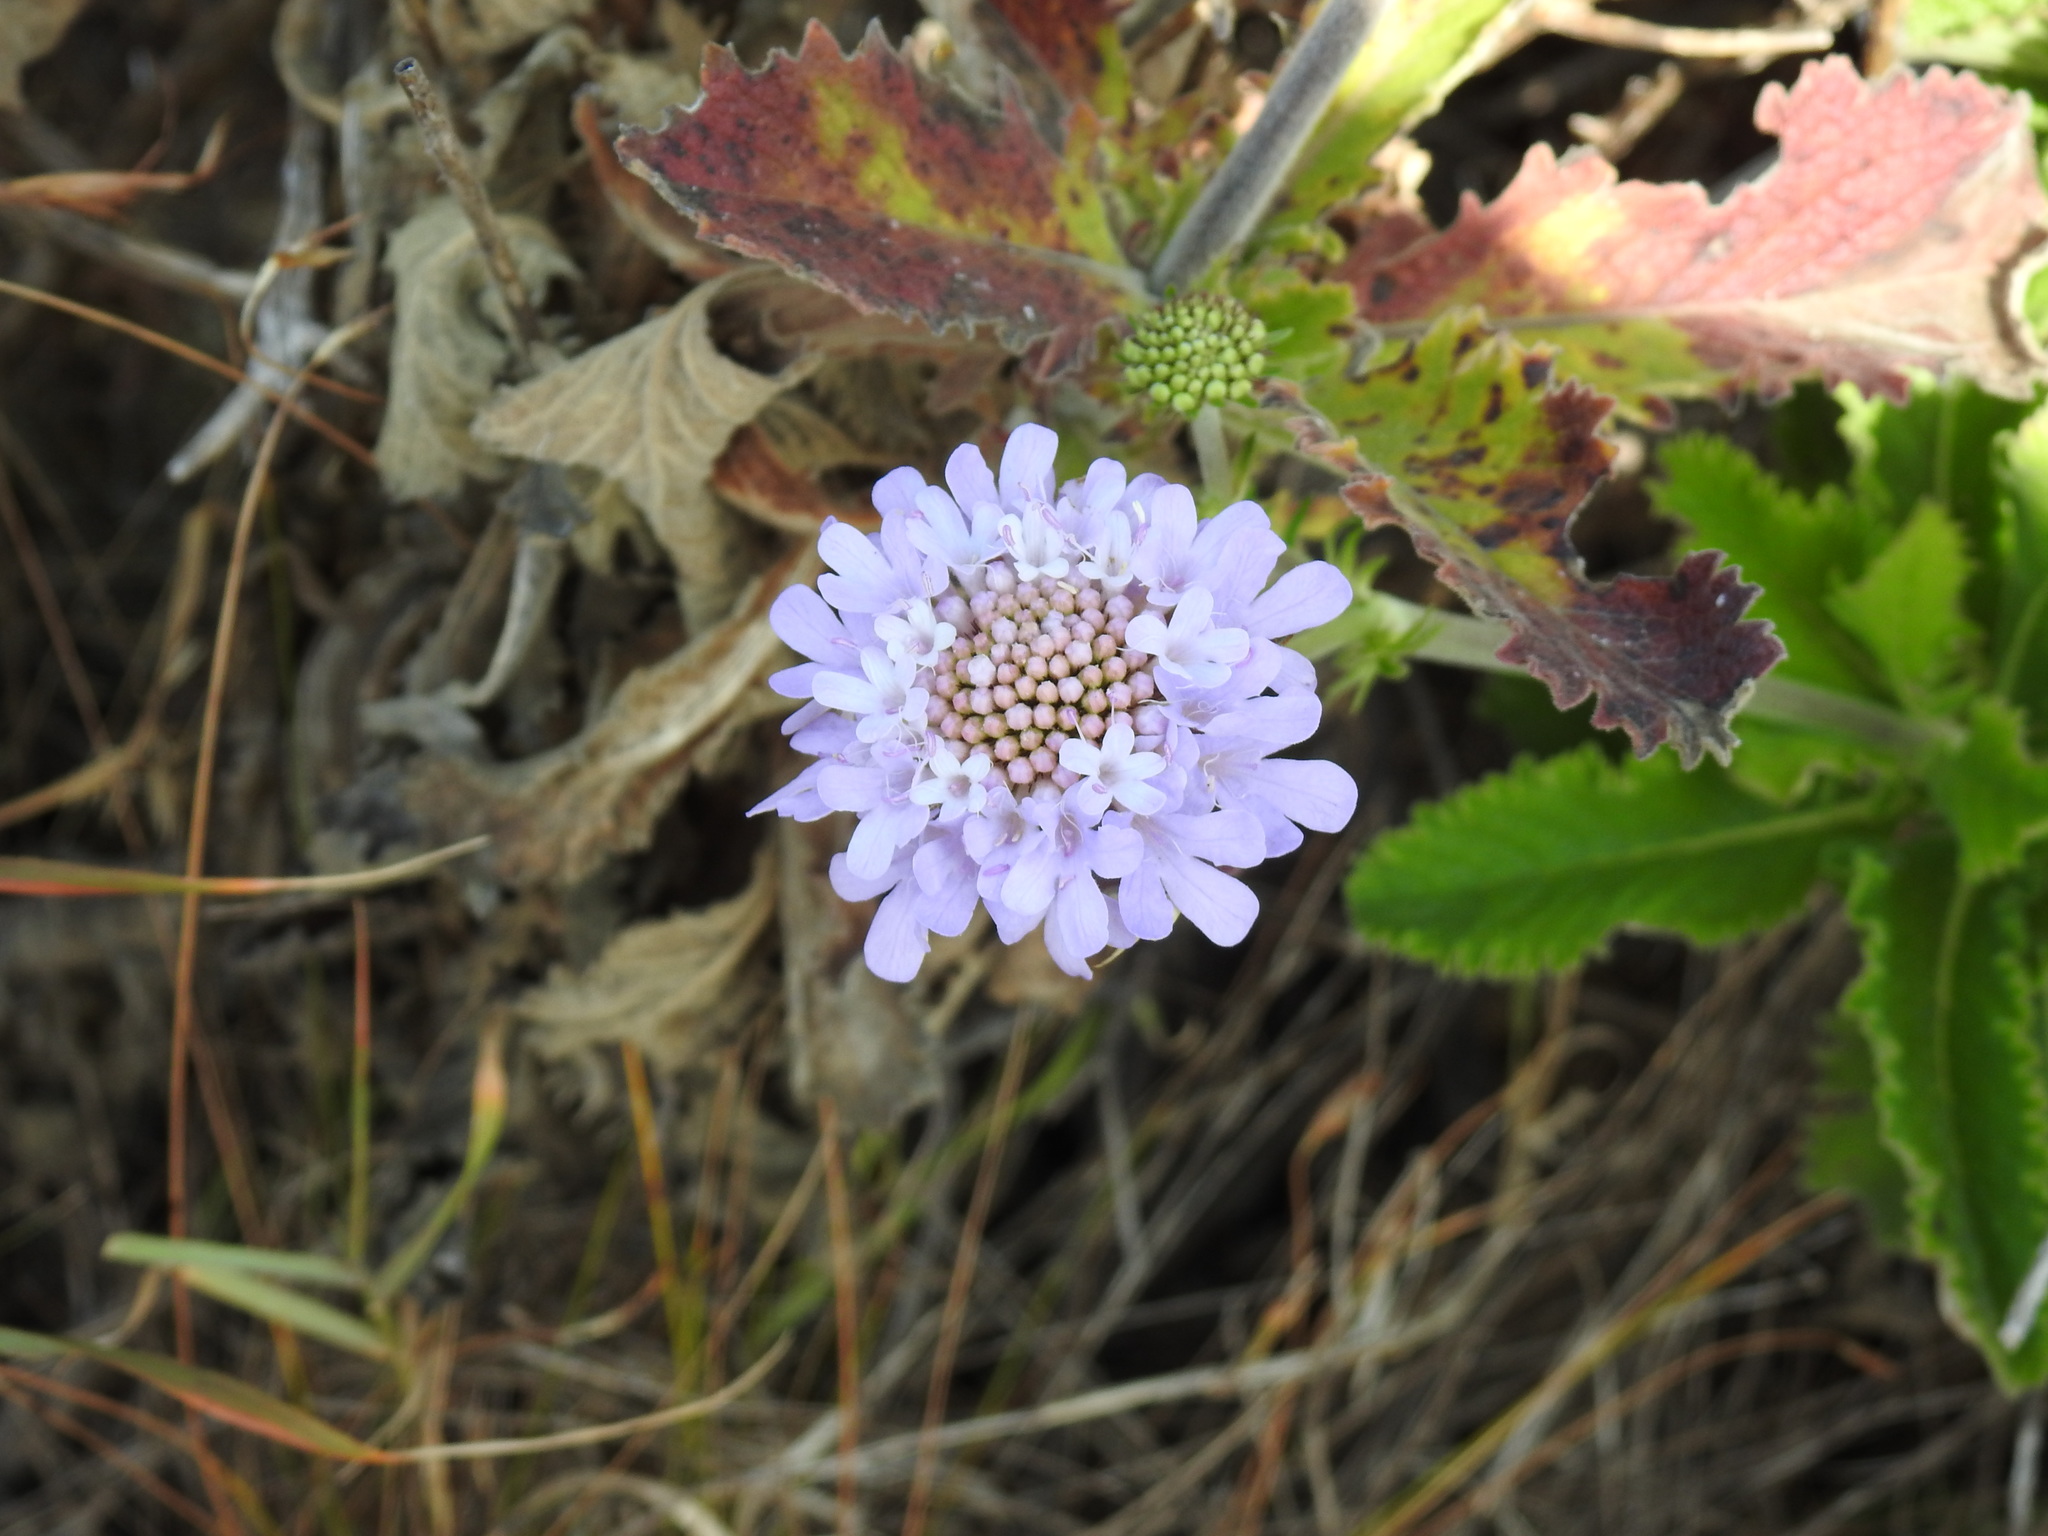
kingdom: Plantae
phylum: Tracheophyta
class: Magnoliopsida
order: Dipsacales
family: Caprifoliaceae
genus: Scabiosa
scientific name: Scabiosa africana
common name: Cape scabious
